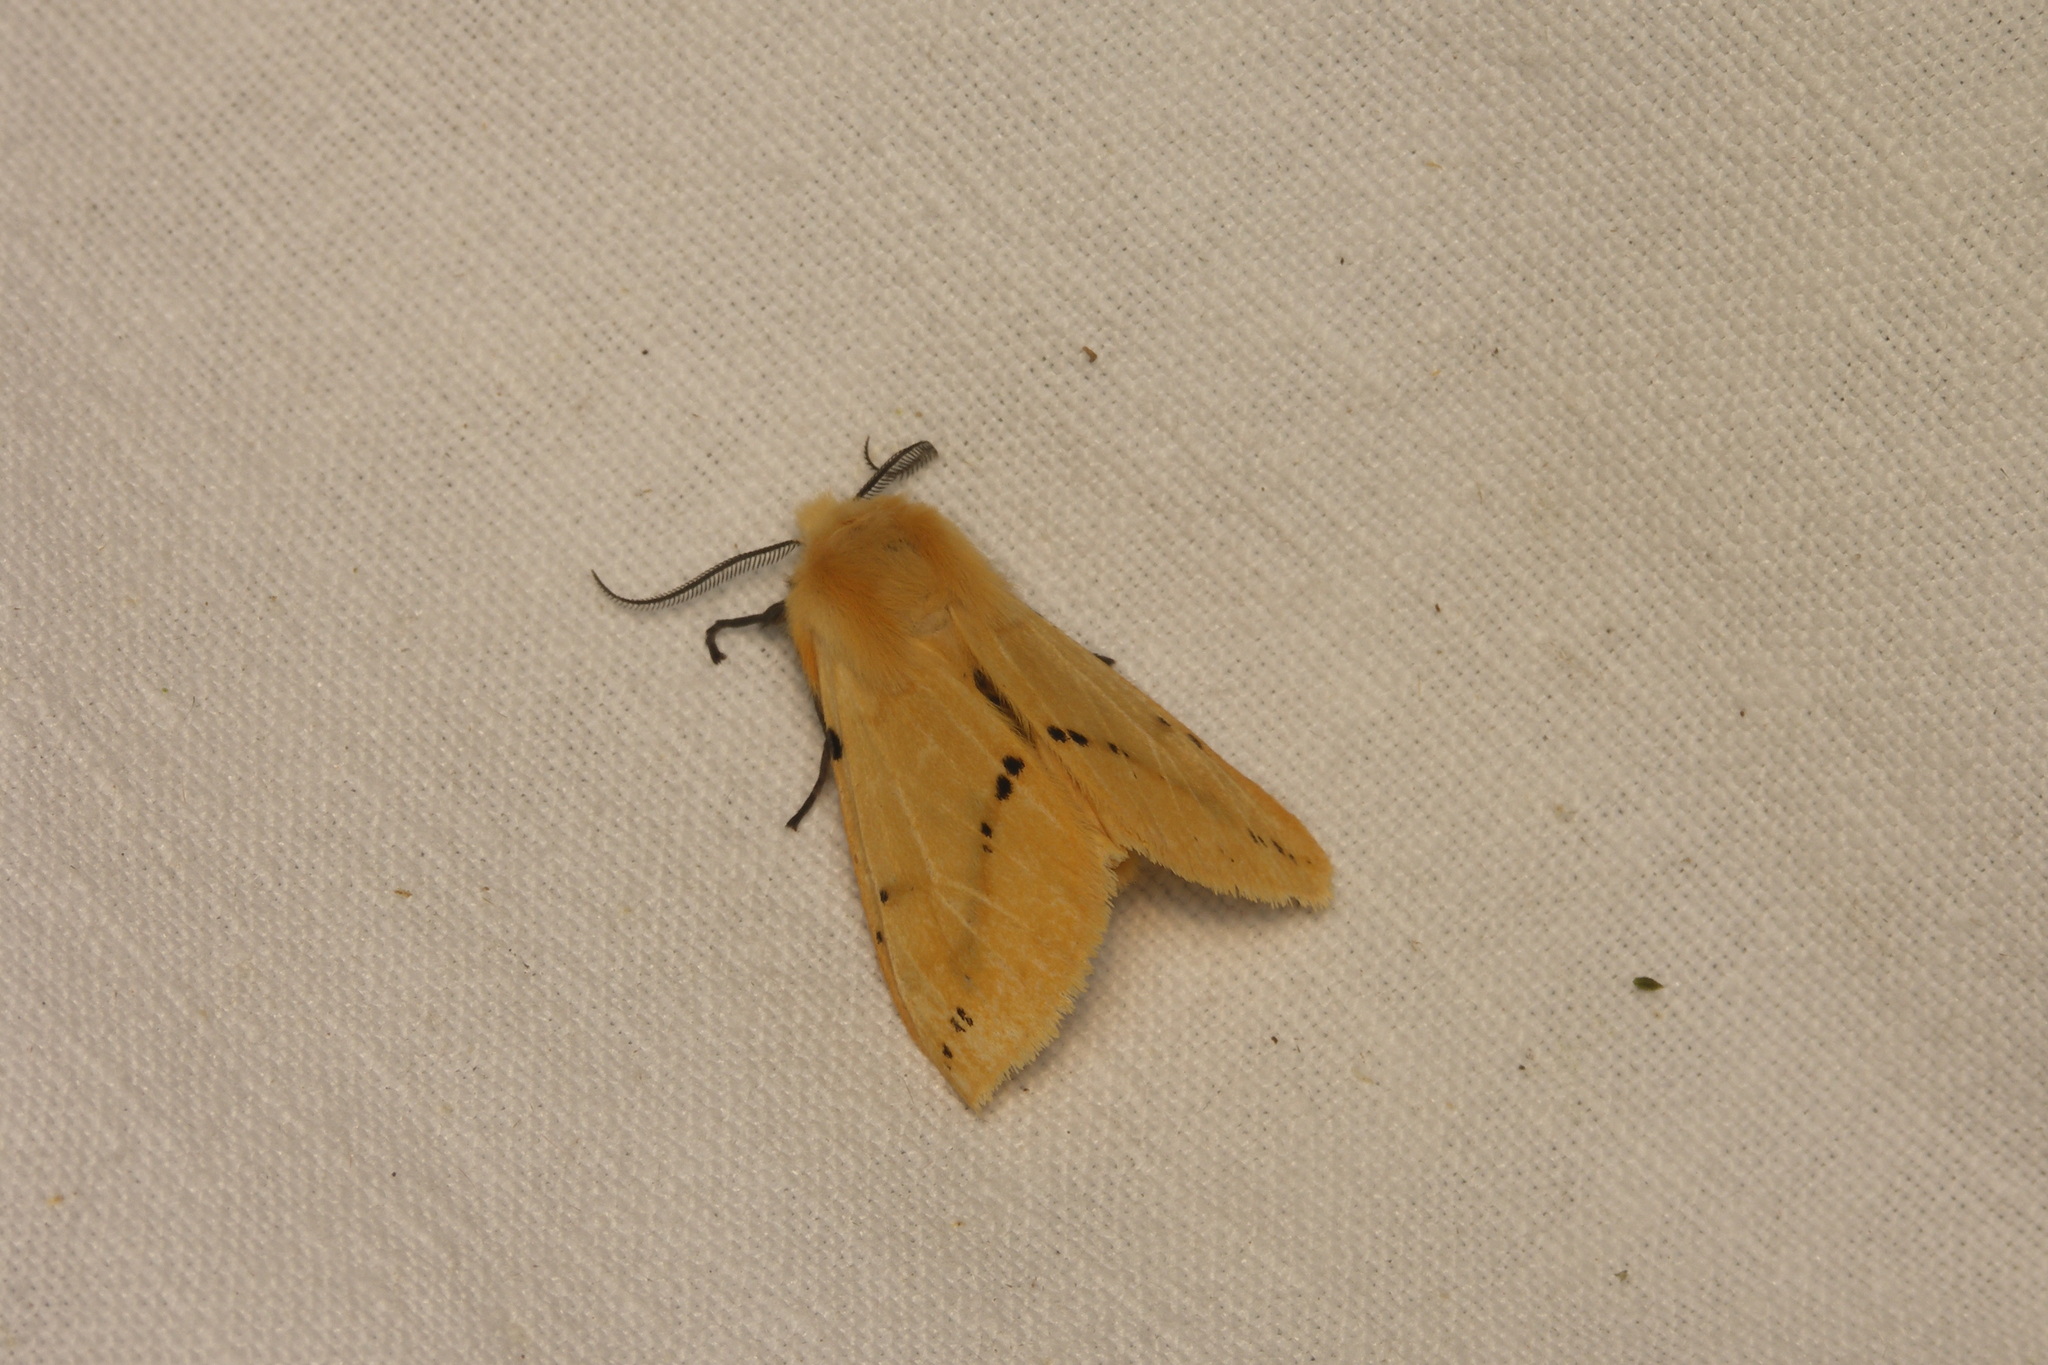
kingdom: Animalia
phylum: Arthropoda
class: Insecta
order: Lepidoptera
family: Erebidae
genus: Spilarctia
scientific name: Spilarctia lutea
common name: Buff ermine
